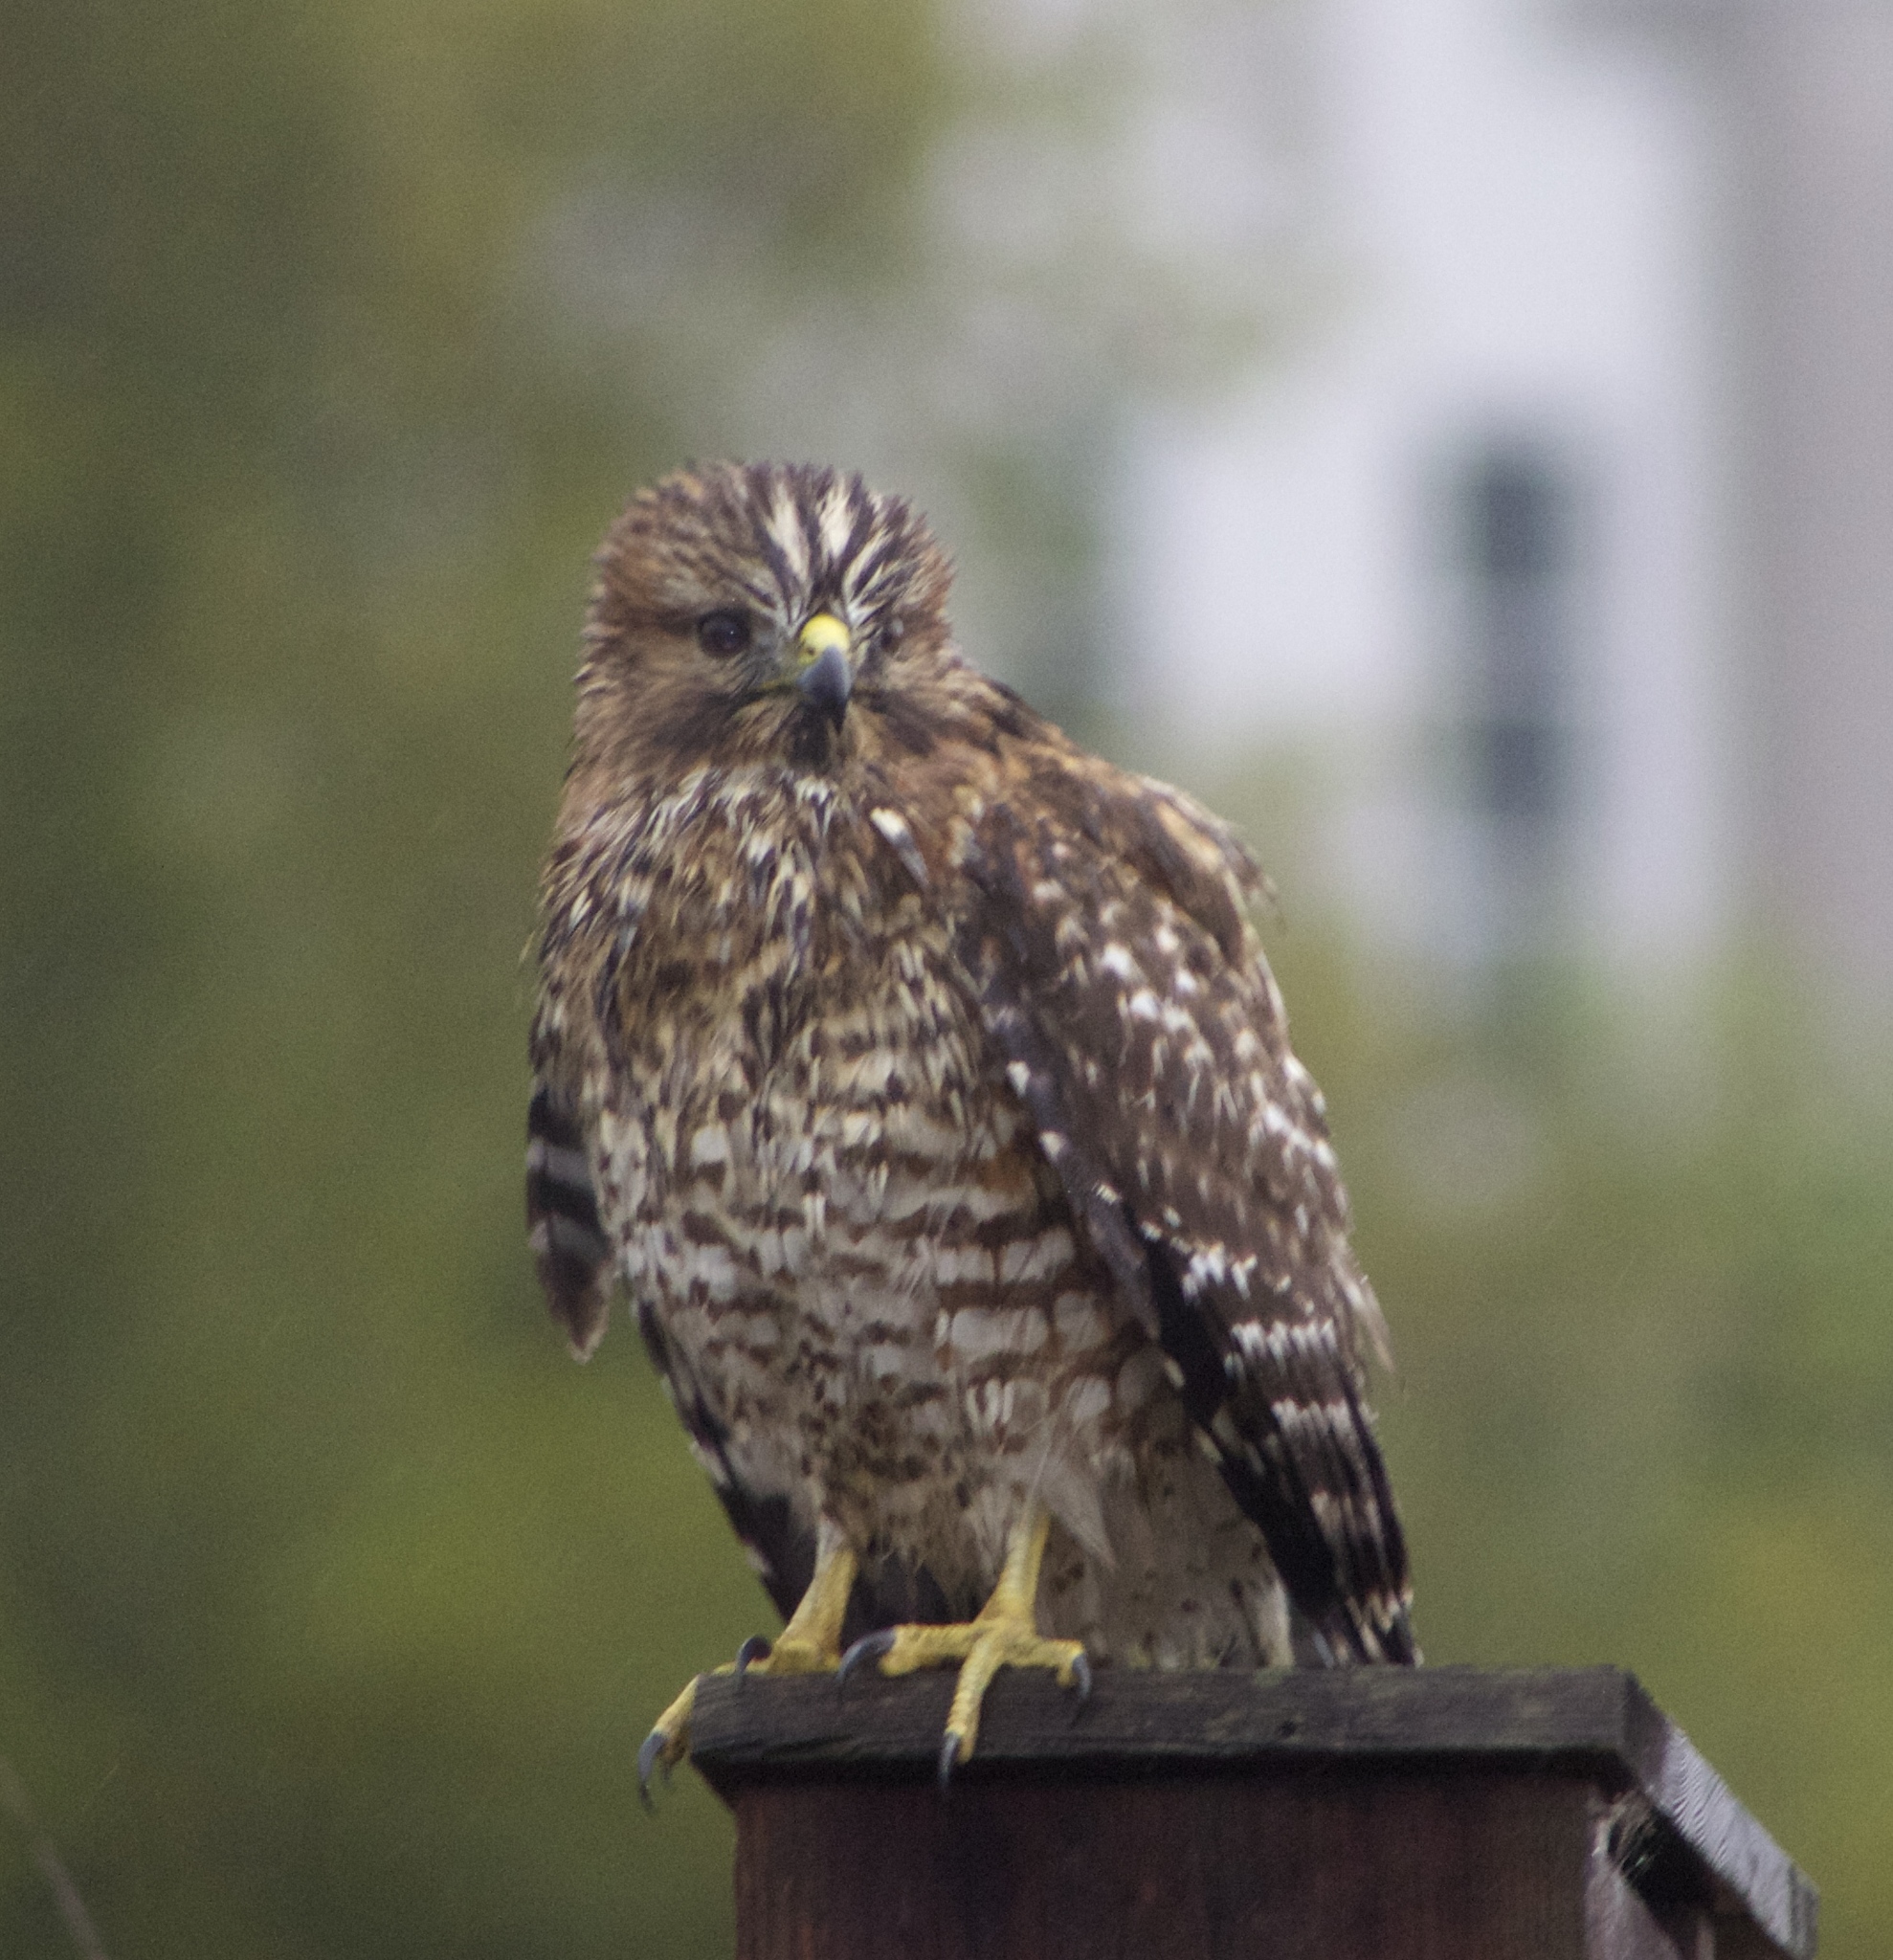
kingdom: Animalia
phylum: Chordata
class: Aves
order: Accipitriformes
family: Accipitridae
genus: Buteo
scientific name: Buteo lineatus
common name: Red-shouldered hawk
